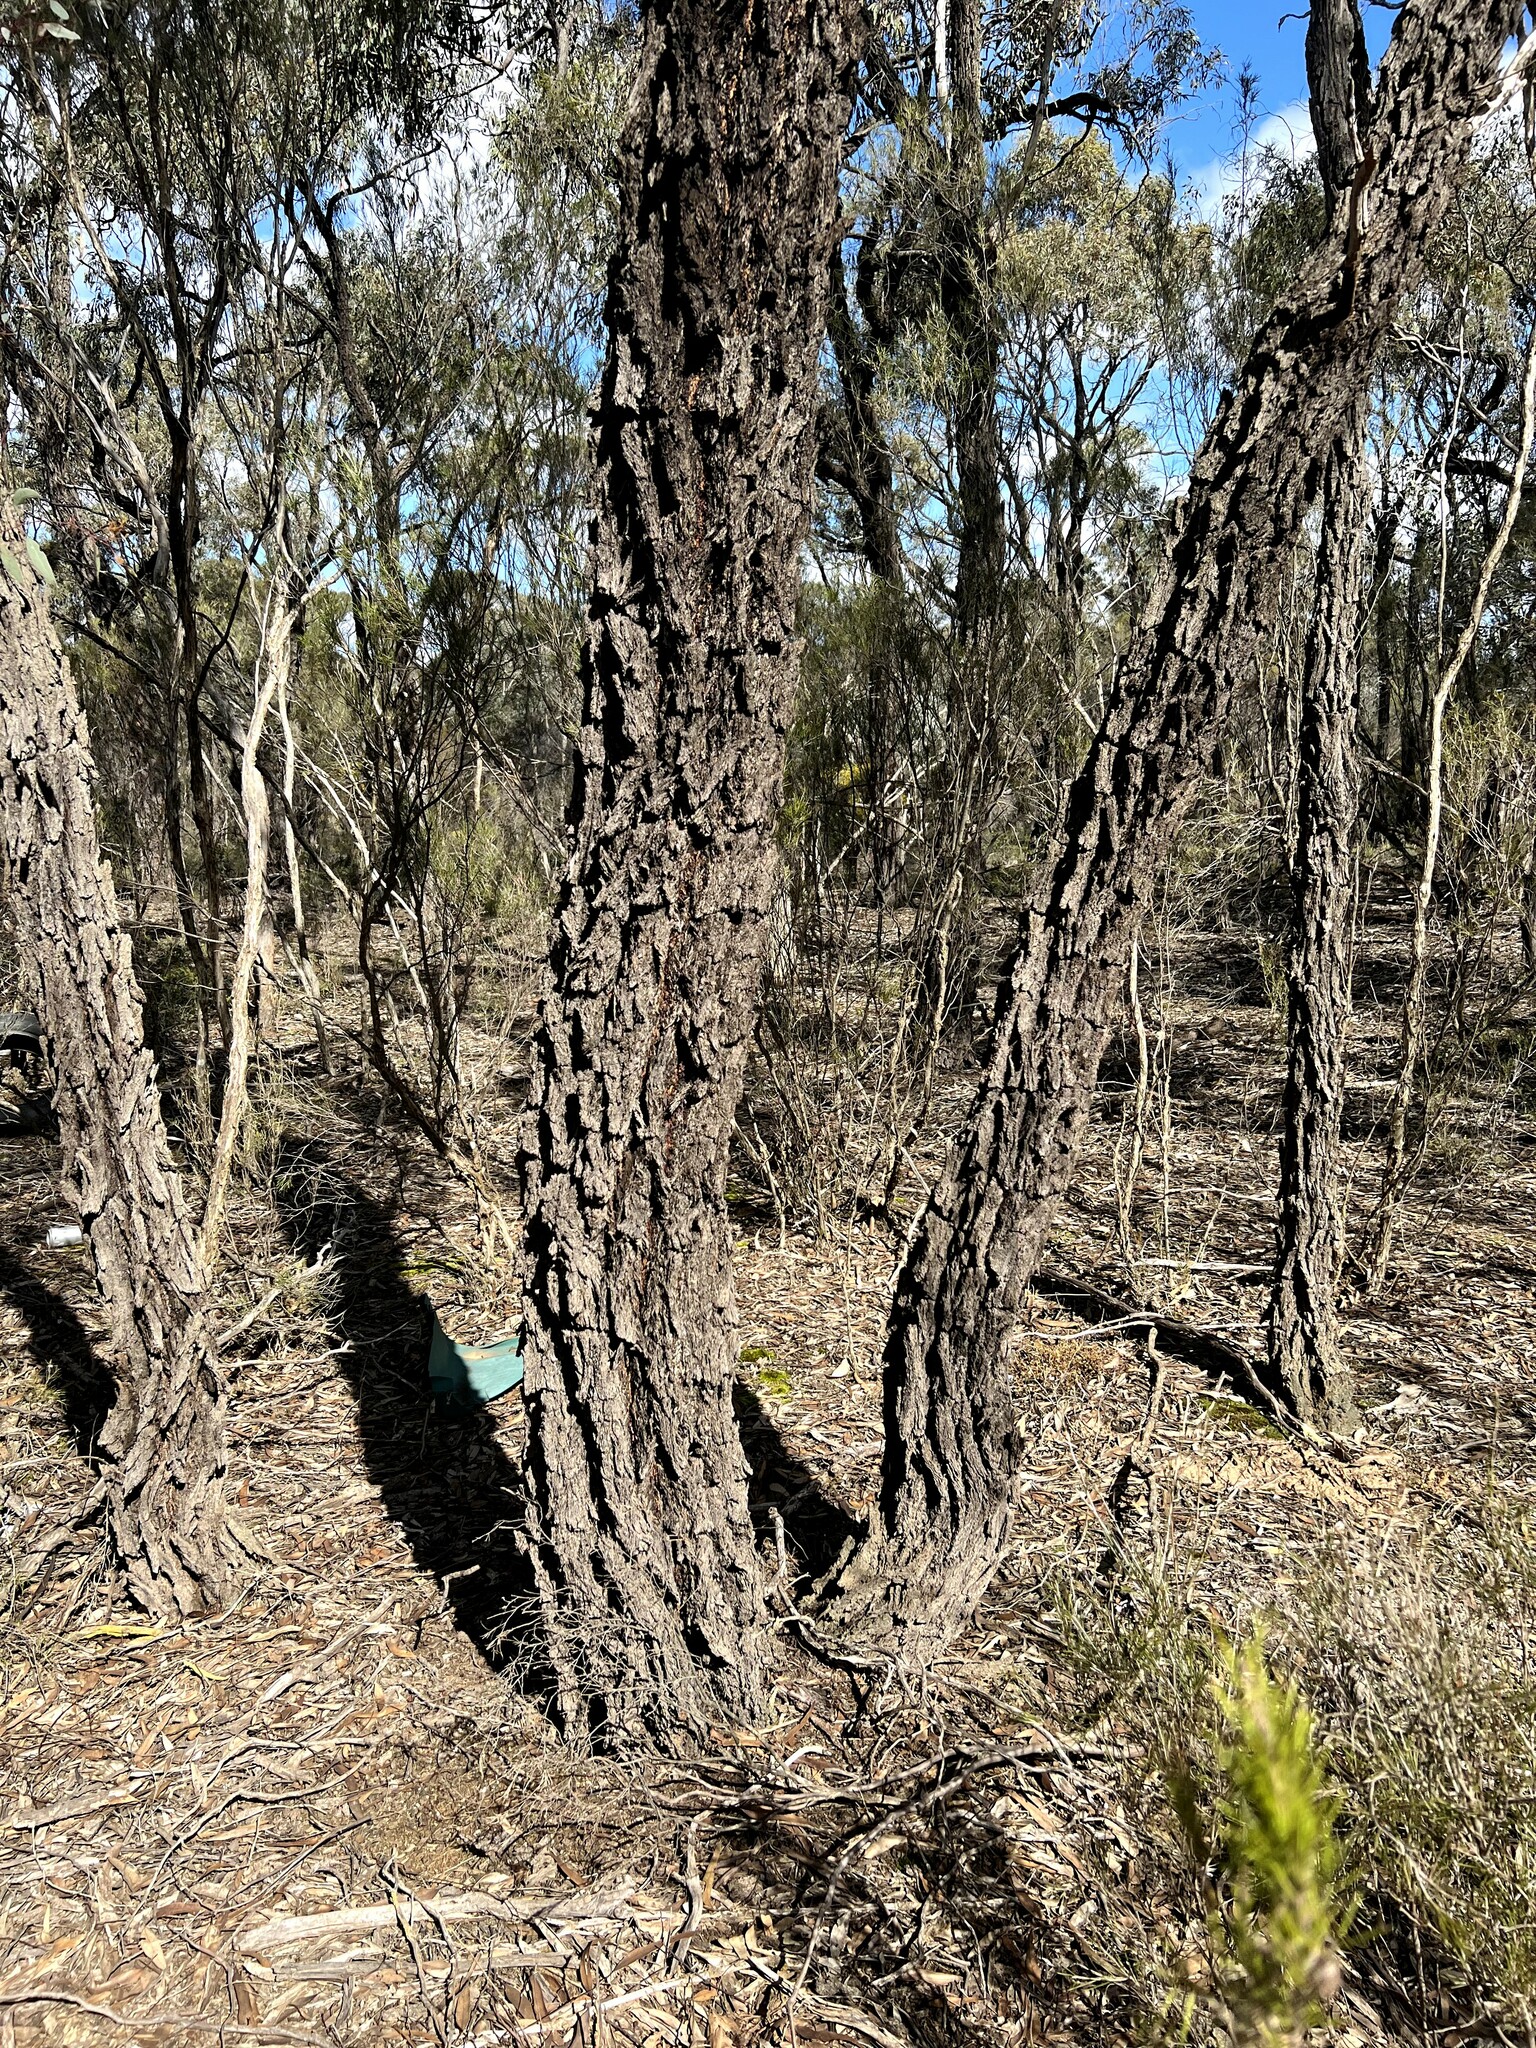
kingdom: Plantae
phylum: Tracheophyta
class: Magnoliopsida
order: Myrtales
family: Myrtaceae
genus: Eucalyptus
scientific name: Eucalyptus tricarpa
